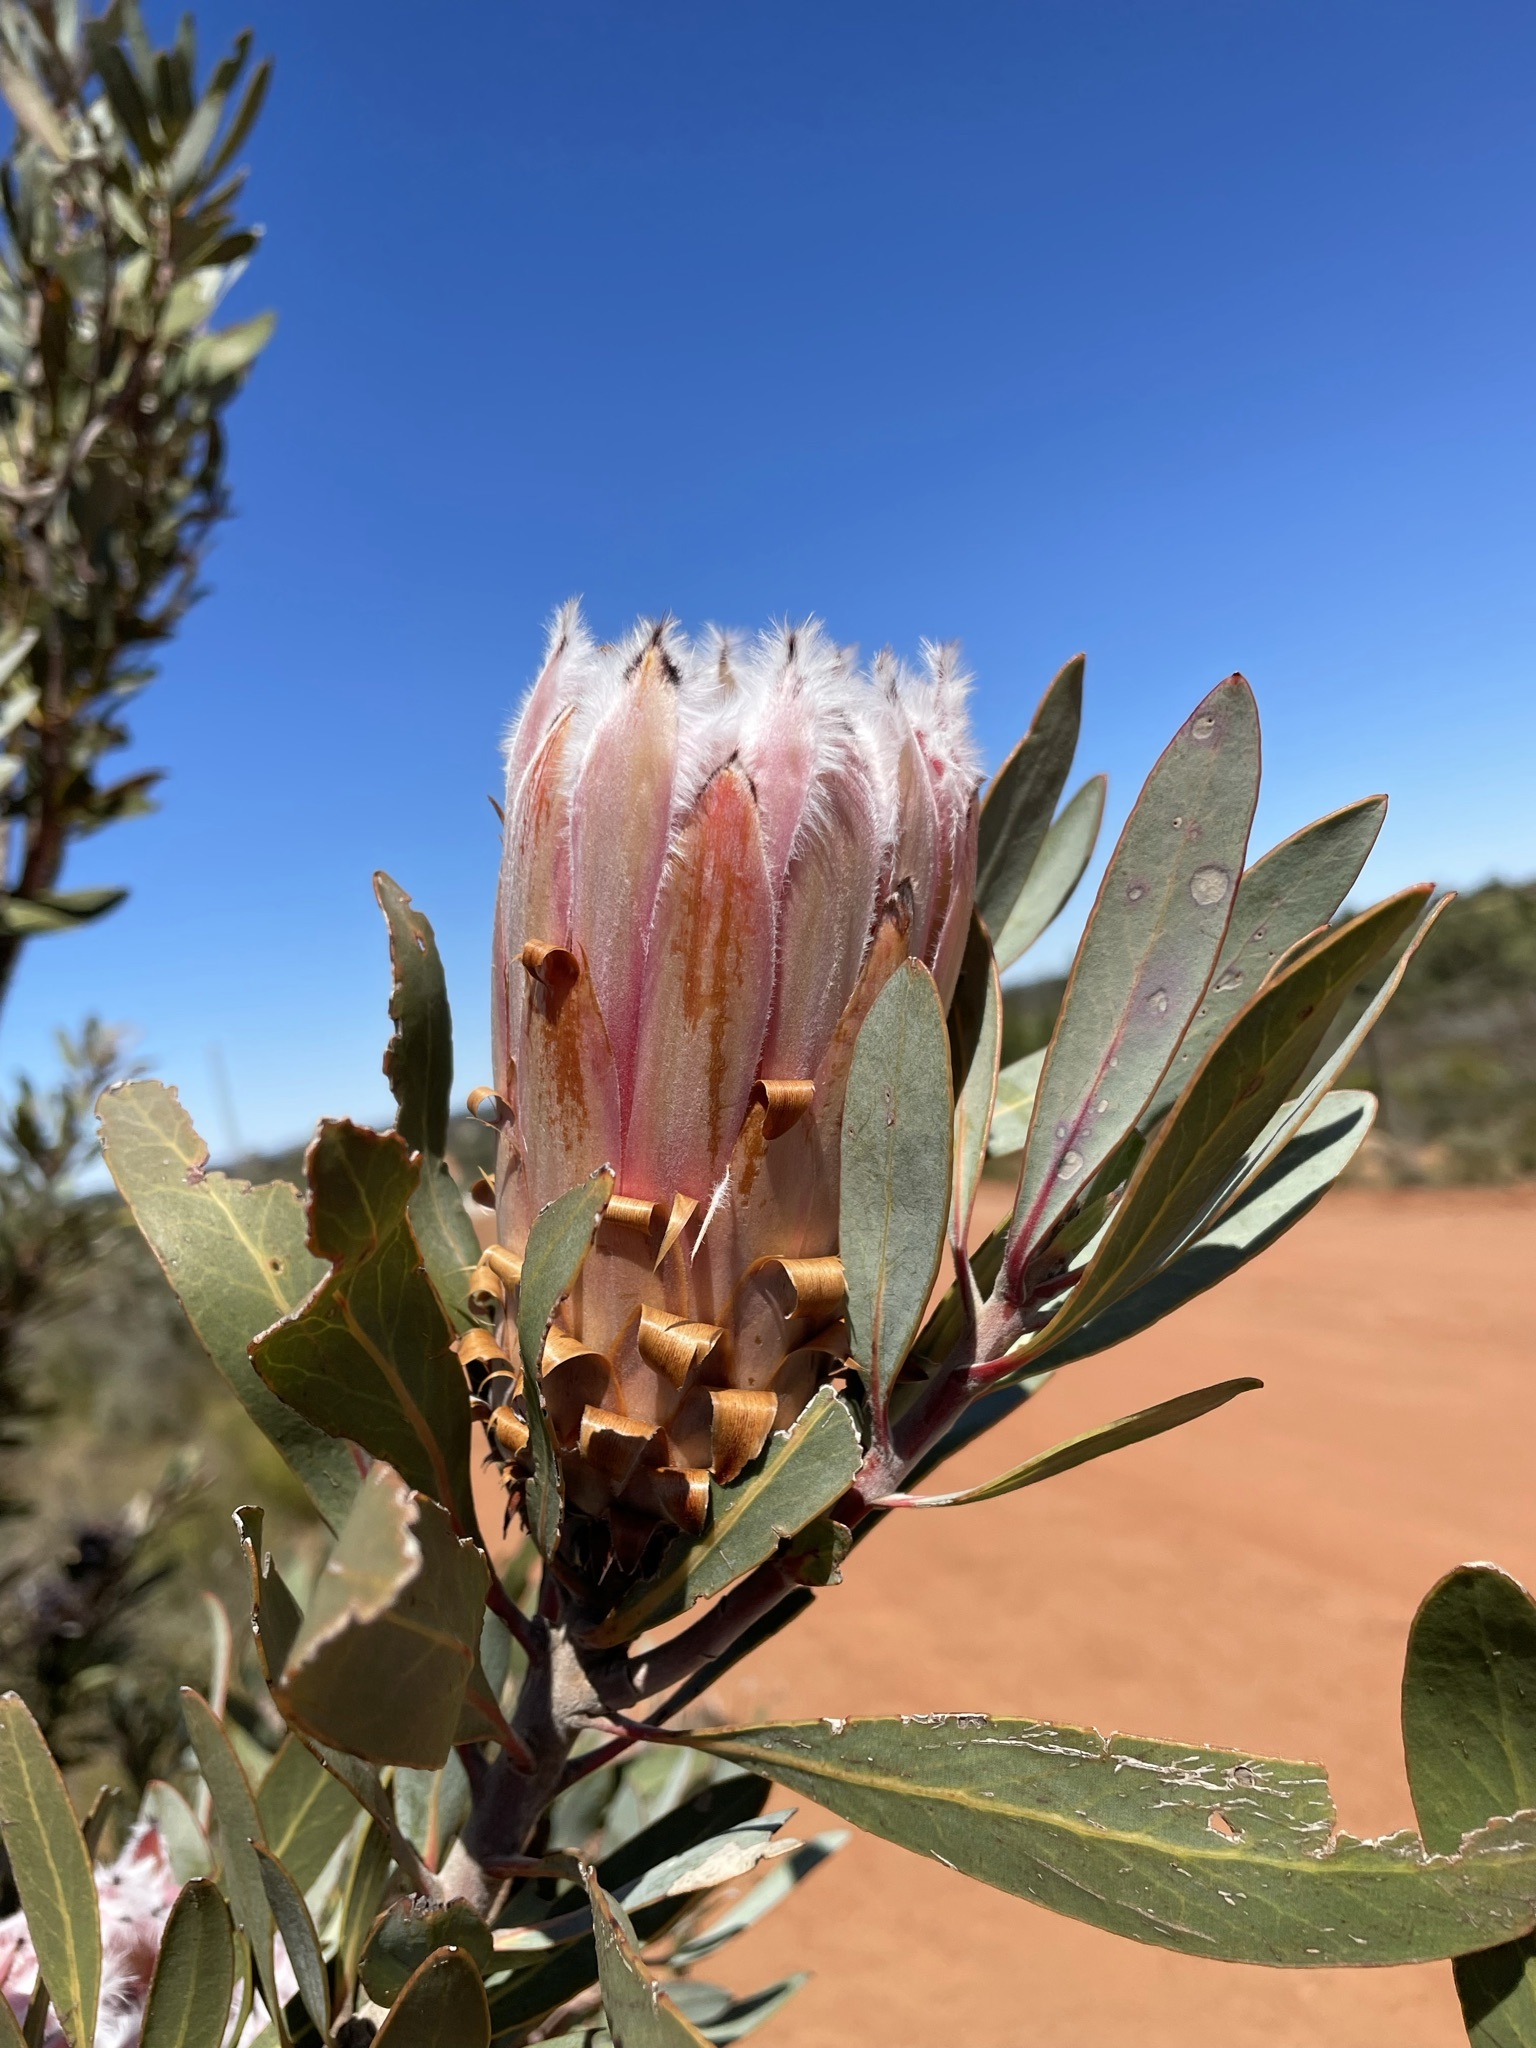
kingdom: Plantae
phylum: Tracheophyta
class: Magnoliopsida
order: Proteales
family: Proteaceae
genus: Protea
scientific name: Protea laurifolia
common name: Grey-leaf sugarbsh
